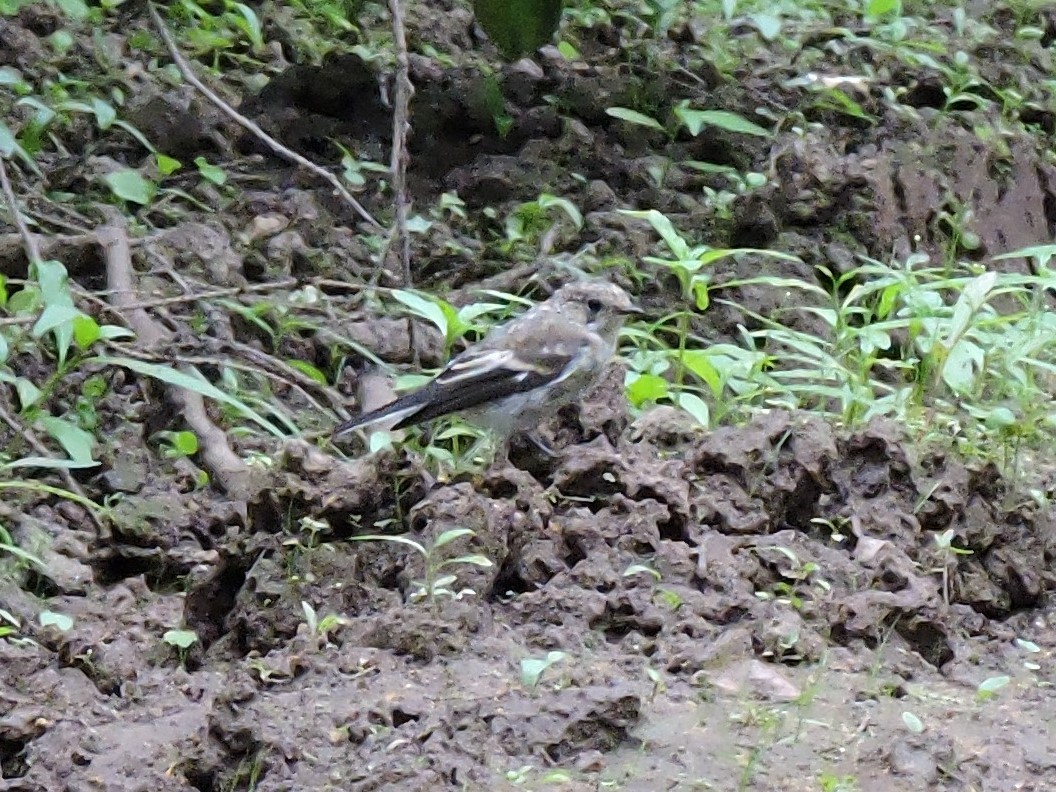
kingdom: Animalia
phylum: Chordata
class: Aves
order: Passeriformes
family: Muscicapidae
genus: Ficedula
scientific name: Ficedula hypoleuca
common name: European pied flycatcher
